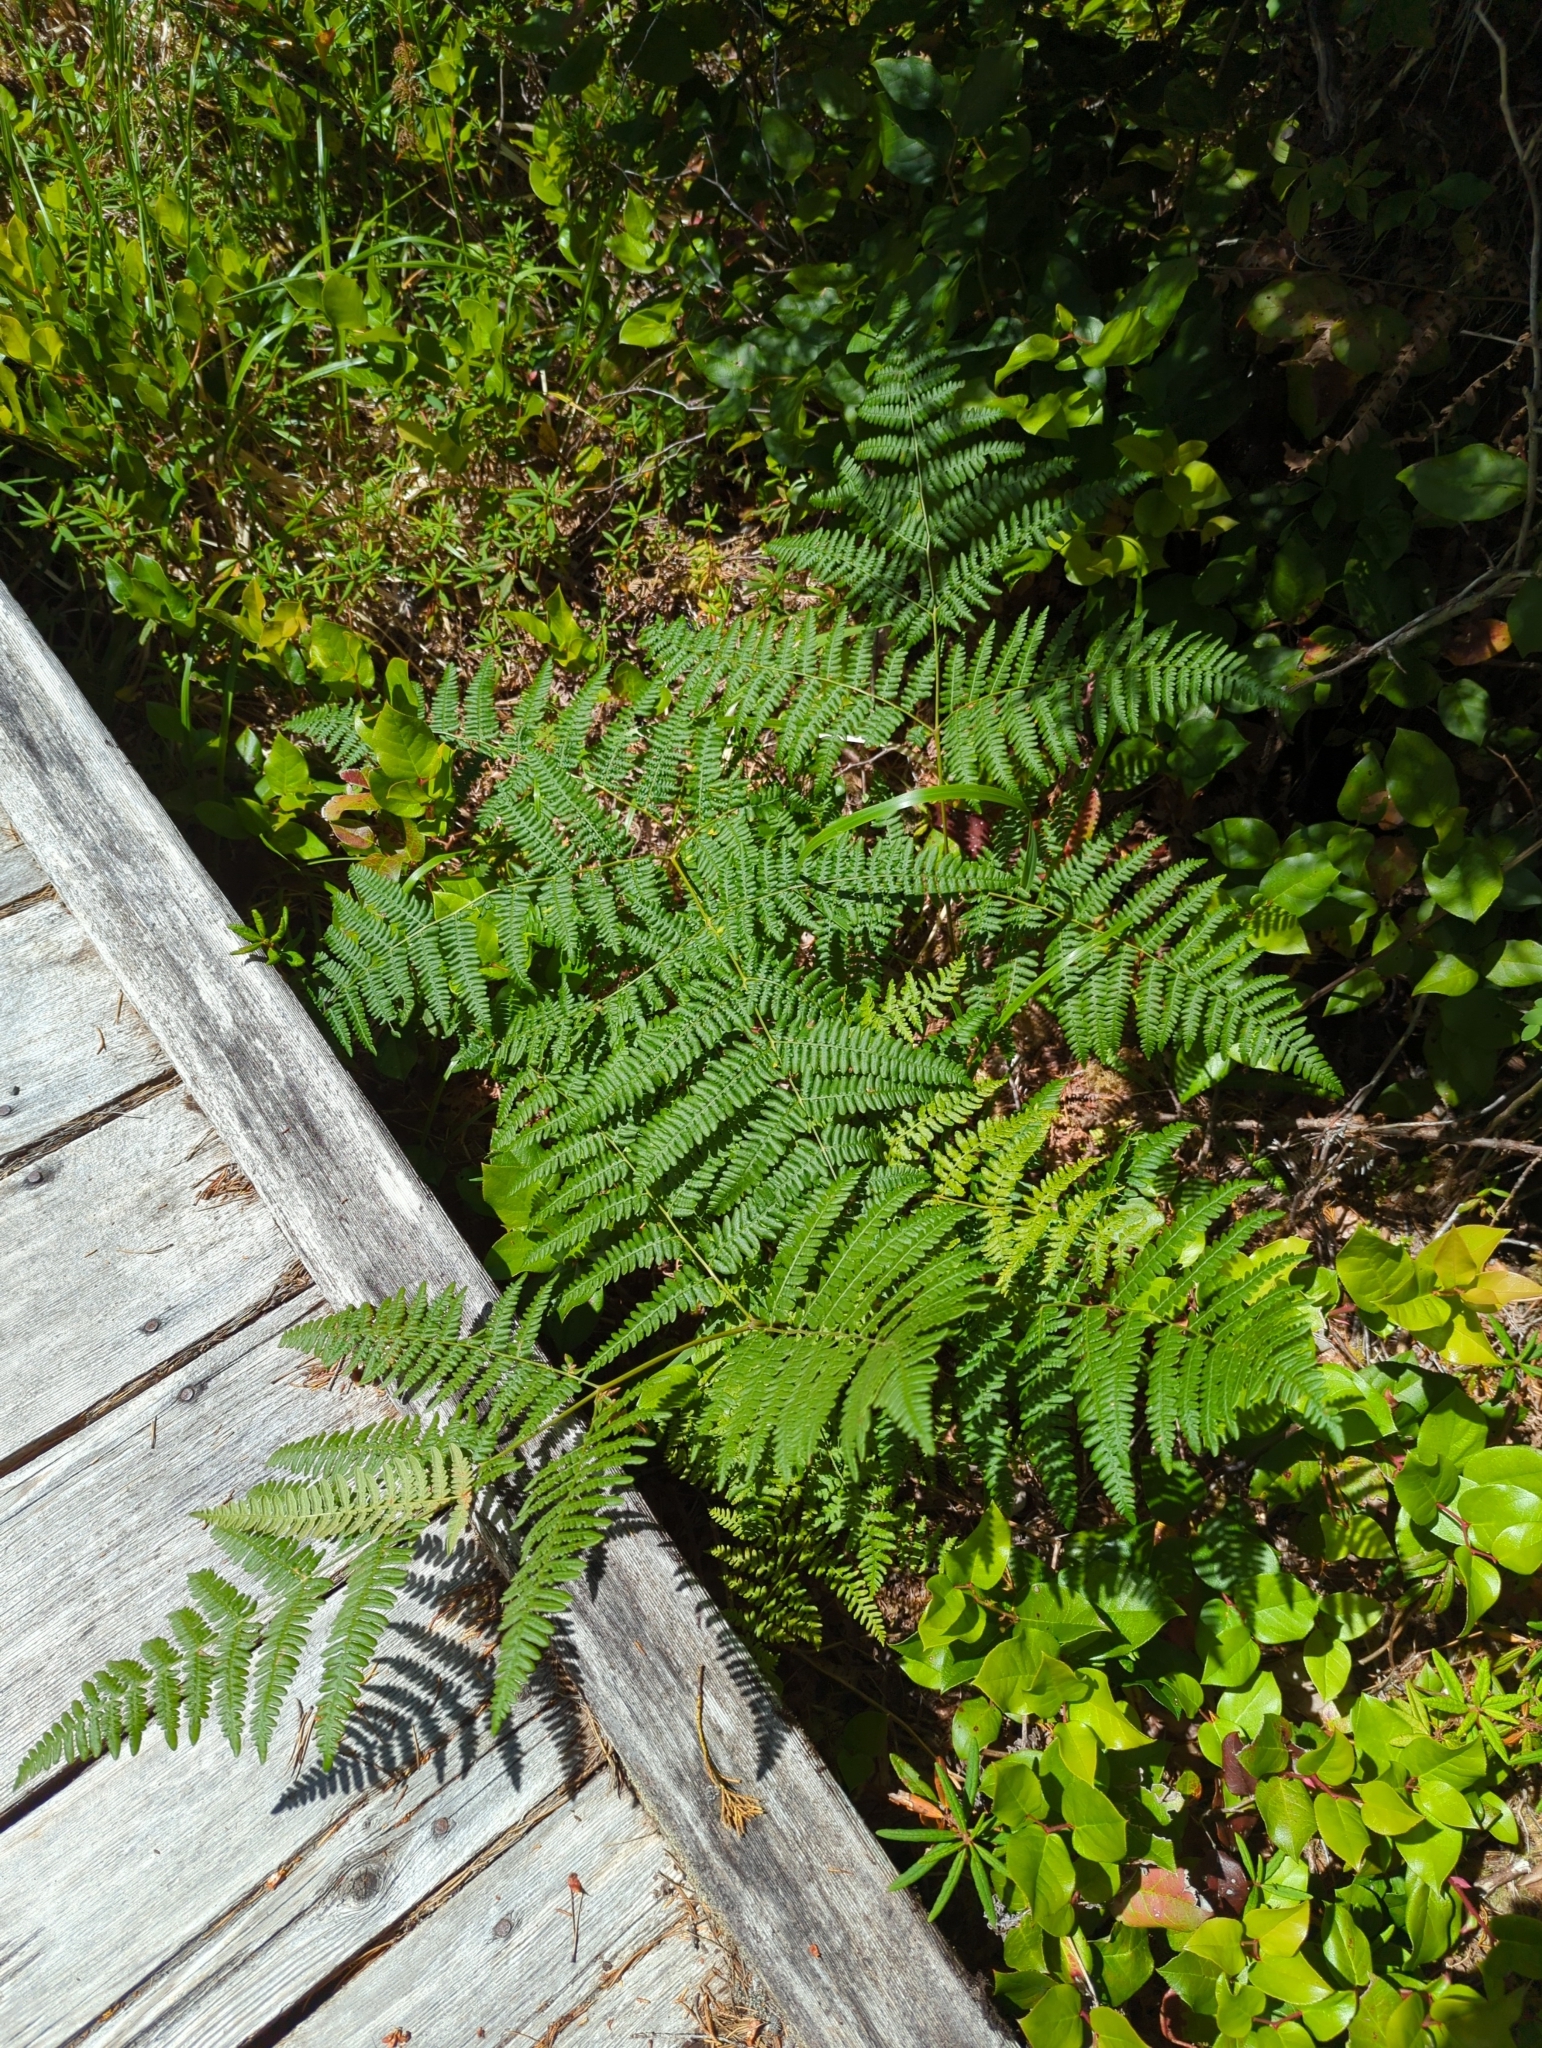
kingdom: Plantae
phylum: Tracheophyta
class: Polypodiopsida
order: Polypodiales
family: Dennstaedtiaceae
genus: Pteridium
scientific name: Pteridium aquilinum
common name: Bracken
